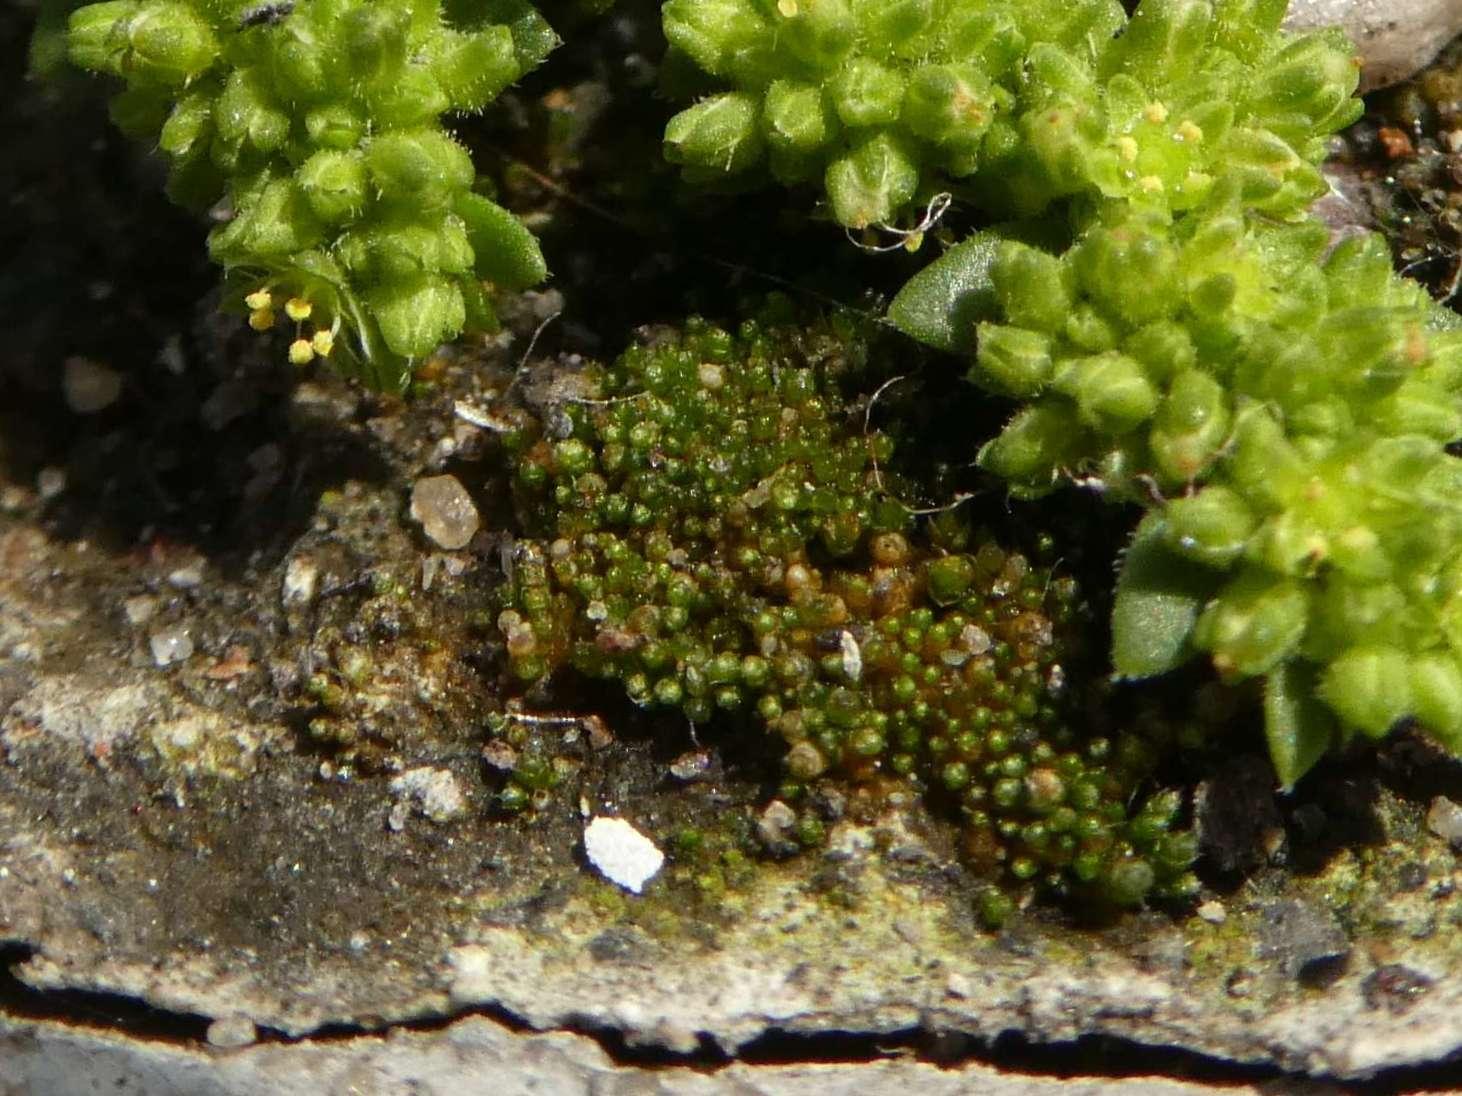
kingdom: Plantae
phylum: Bryophyta
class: Bryopsida
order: Bryales
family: Bryaceae
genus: Bryum
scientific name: Bryum argenteum
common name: Silver-moss
